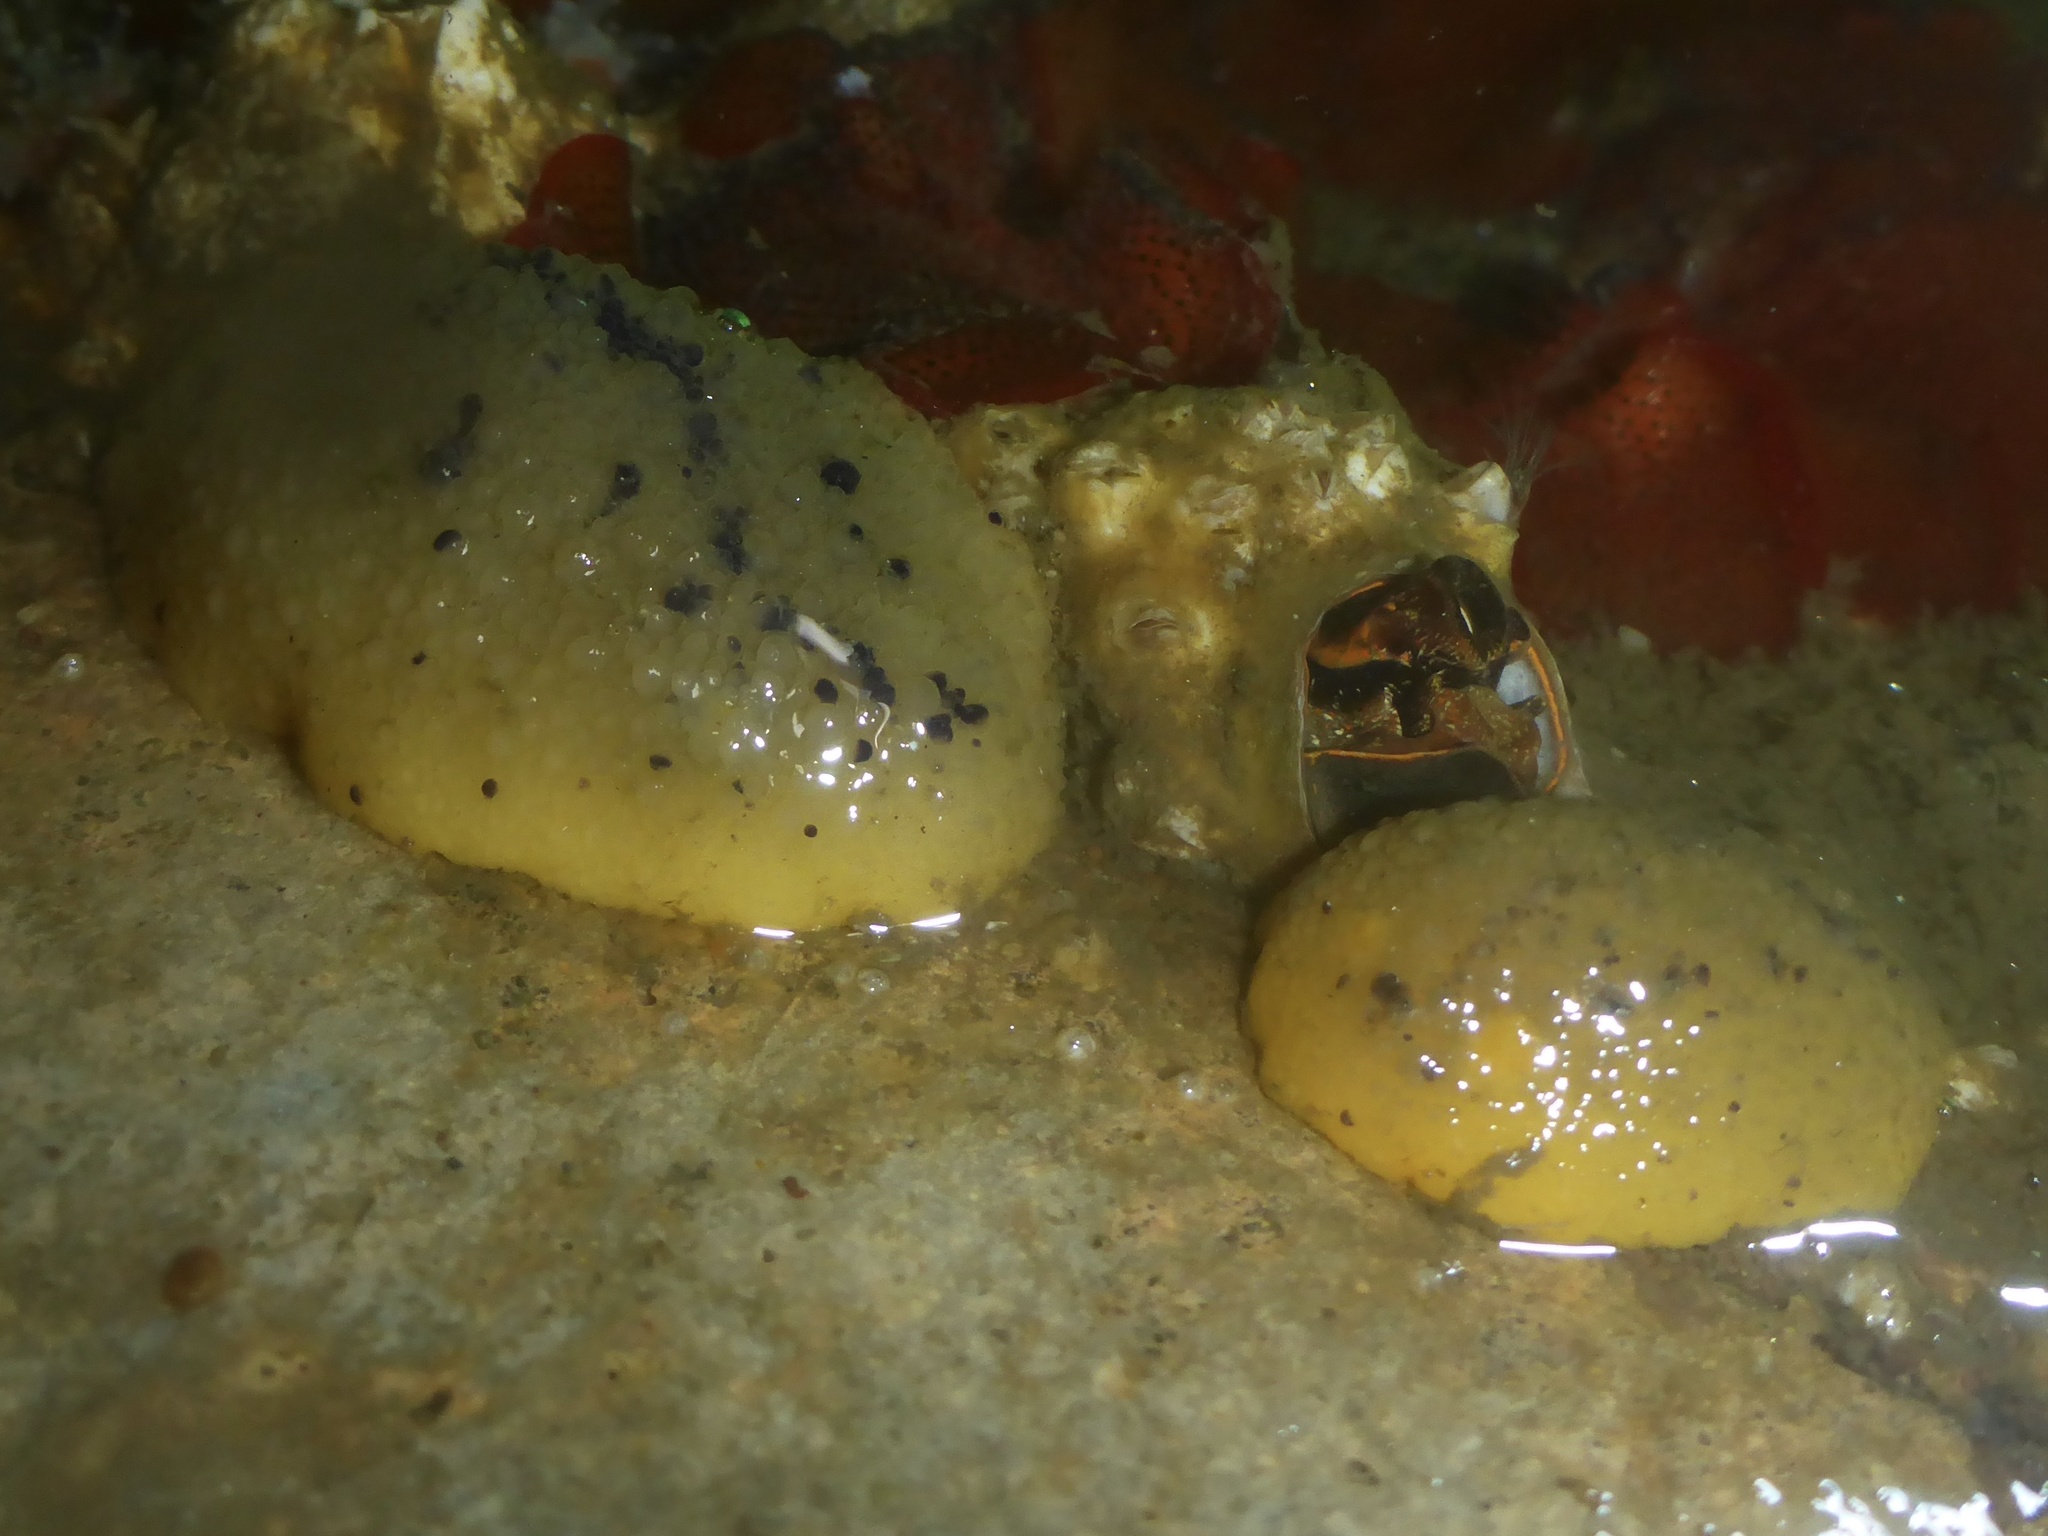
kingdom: Animalia
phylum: Mollusca
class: Gastropoda
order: Nudibranchia
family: Dorididae
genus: Doris
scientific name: Doris montereyensis
